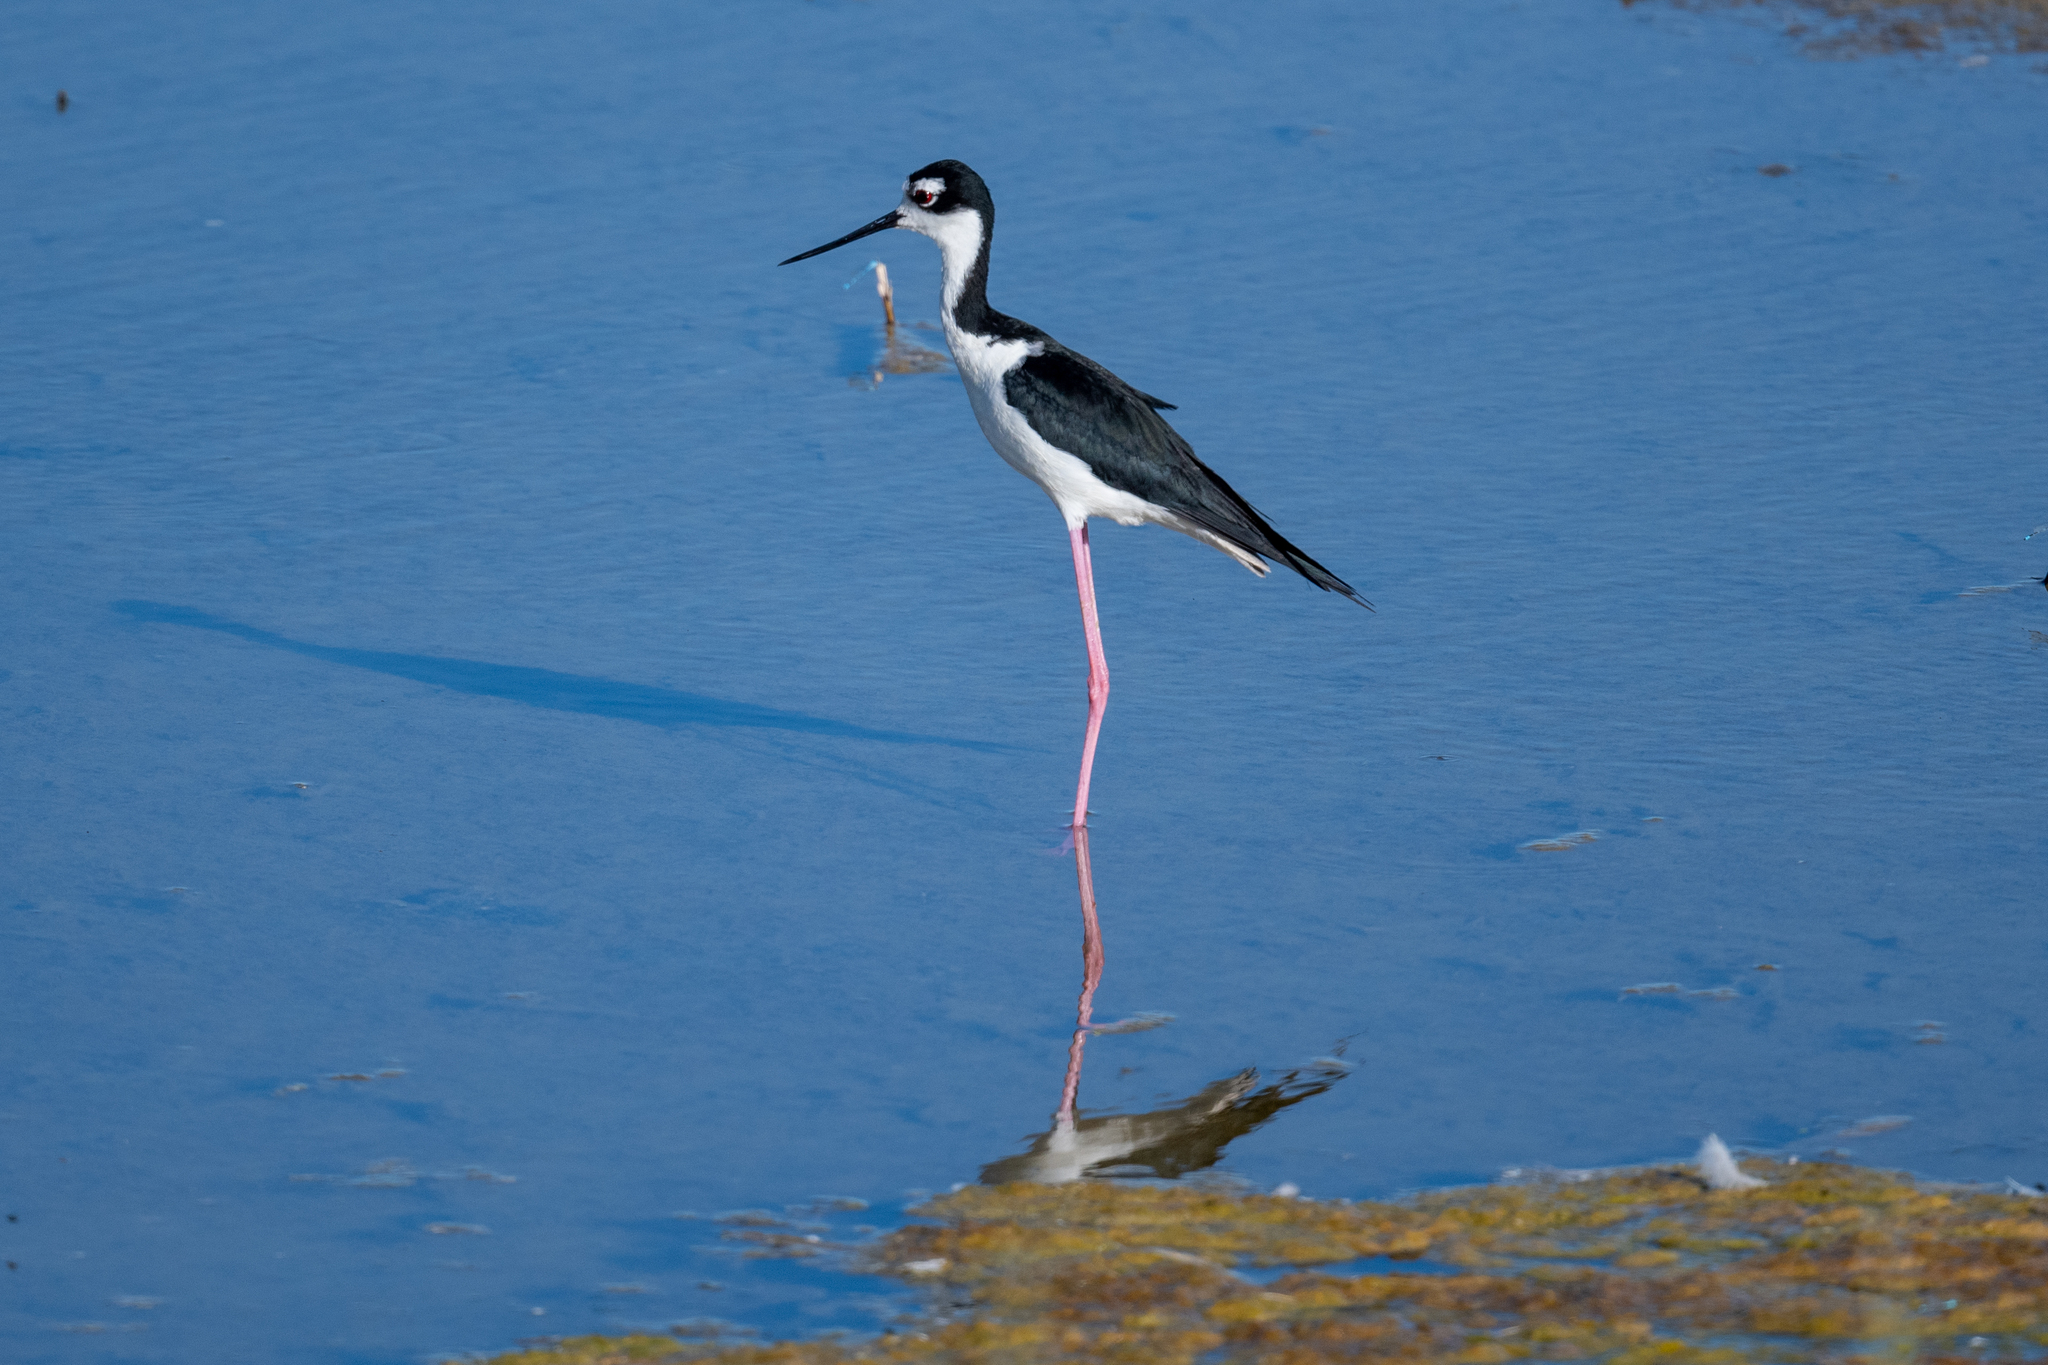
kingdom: Animalia
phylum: Chordata
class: Aves
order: Charadriiformes
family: Recurvirostridae
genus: Himantopus
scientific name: Himantopus mexicanus
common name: Black-necked stilt
